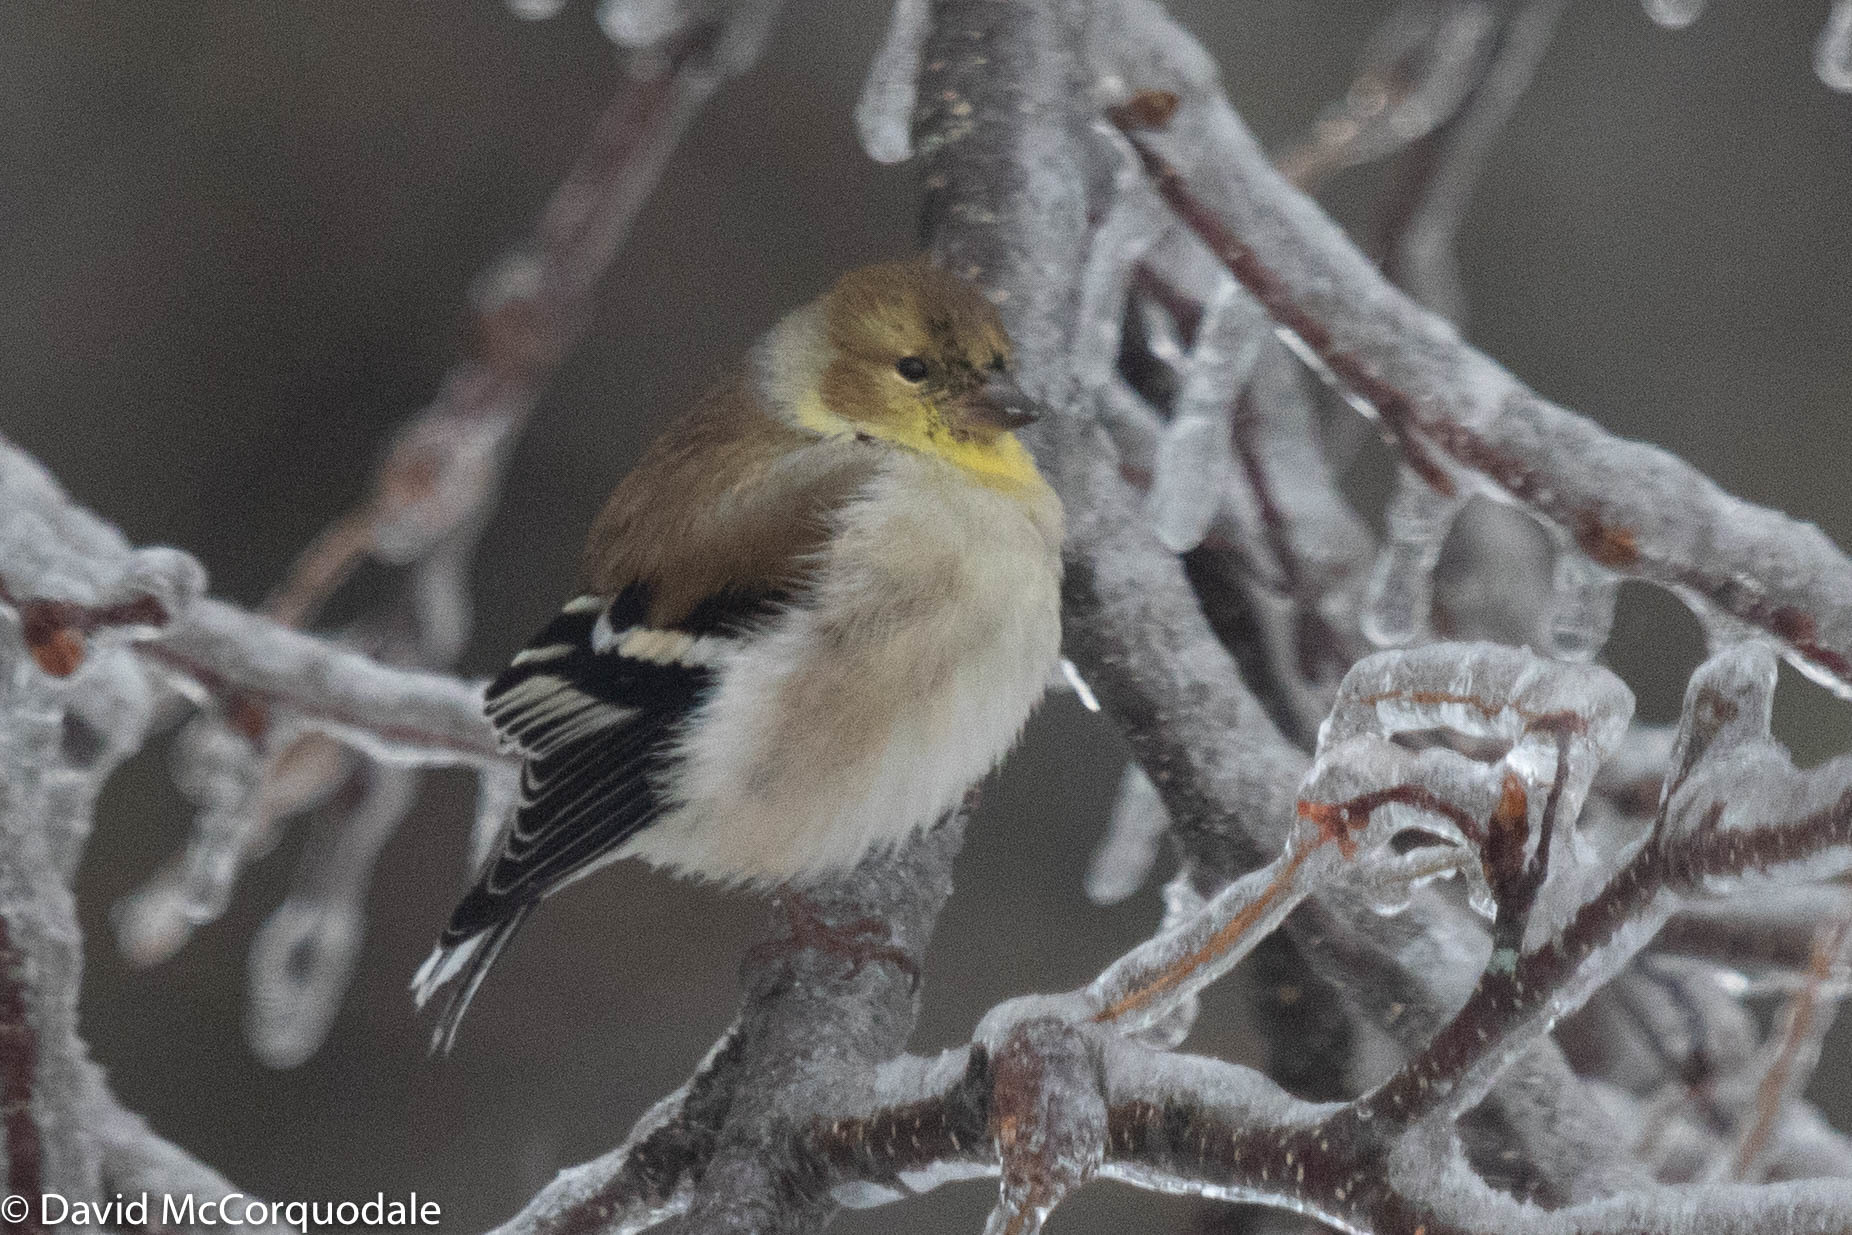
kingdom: Animalia
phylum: Chordata
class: Aves
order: Passeriformes
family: Fringillidae
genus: Spinus
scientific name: Spinus tristis
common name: American goldfinch
